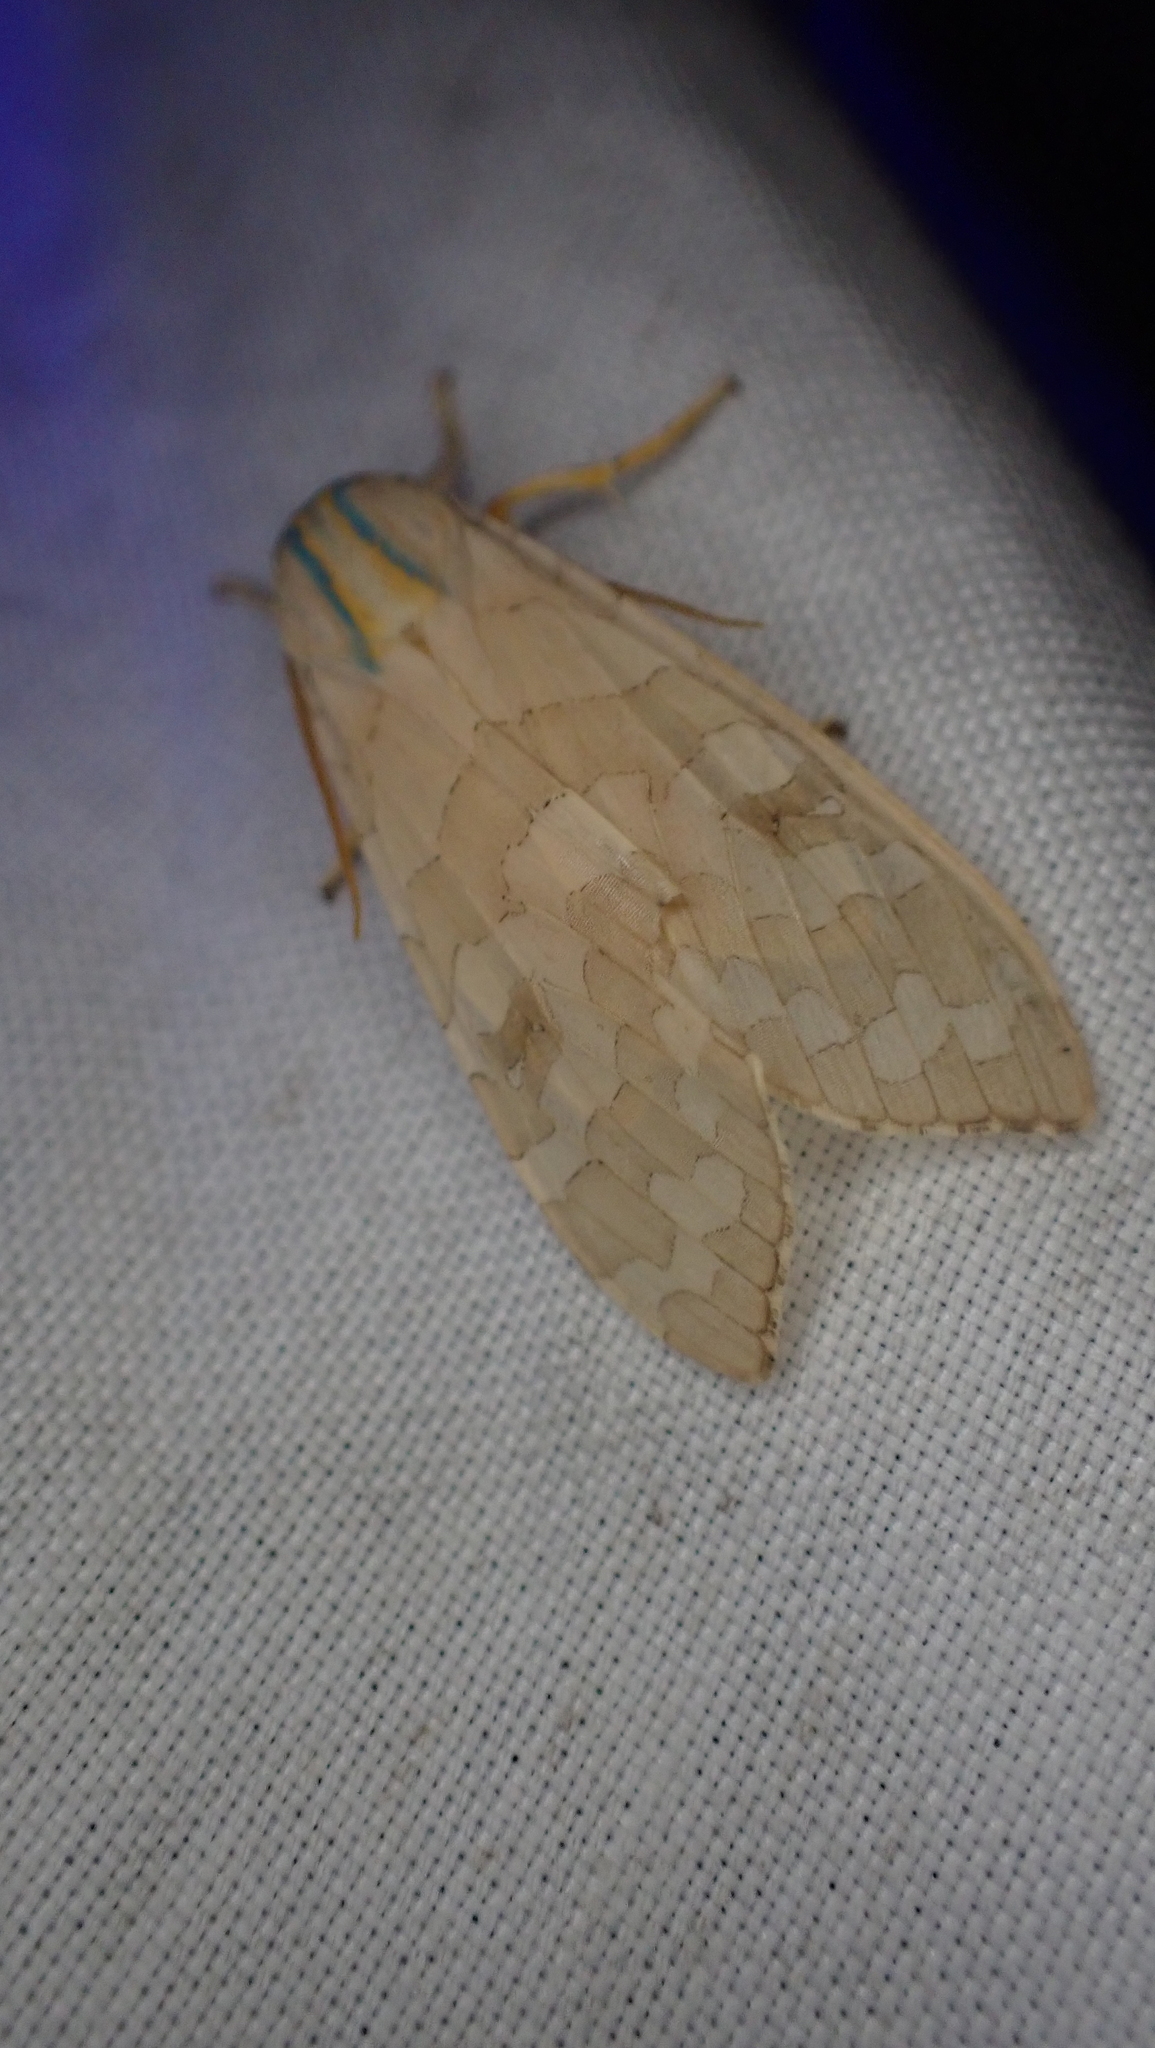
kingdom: Animalia
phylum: Arthropoda
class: Insecta
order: Lepidoptera
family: Erebidae
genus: Halysidota
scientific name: Halysidota
